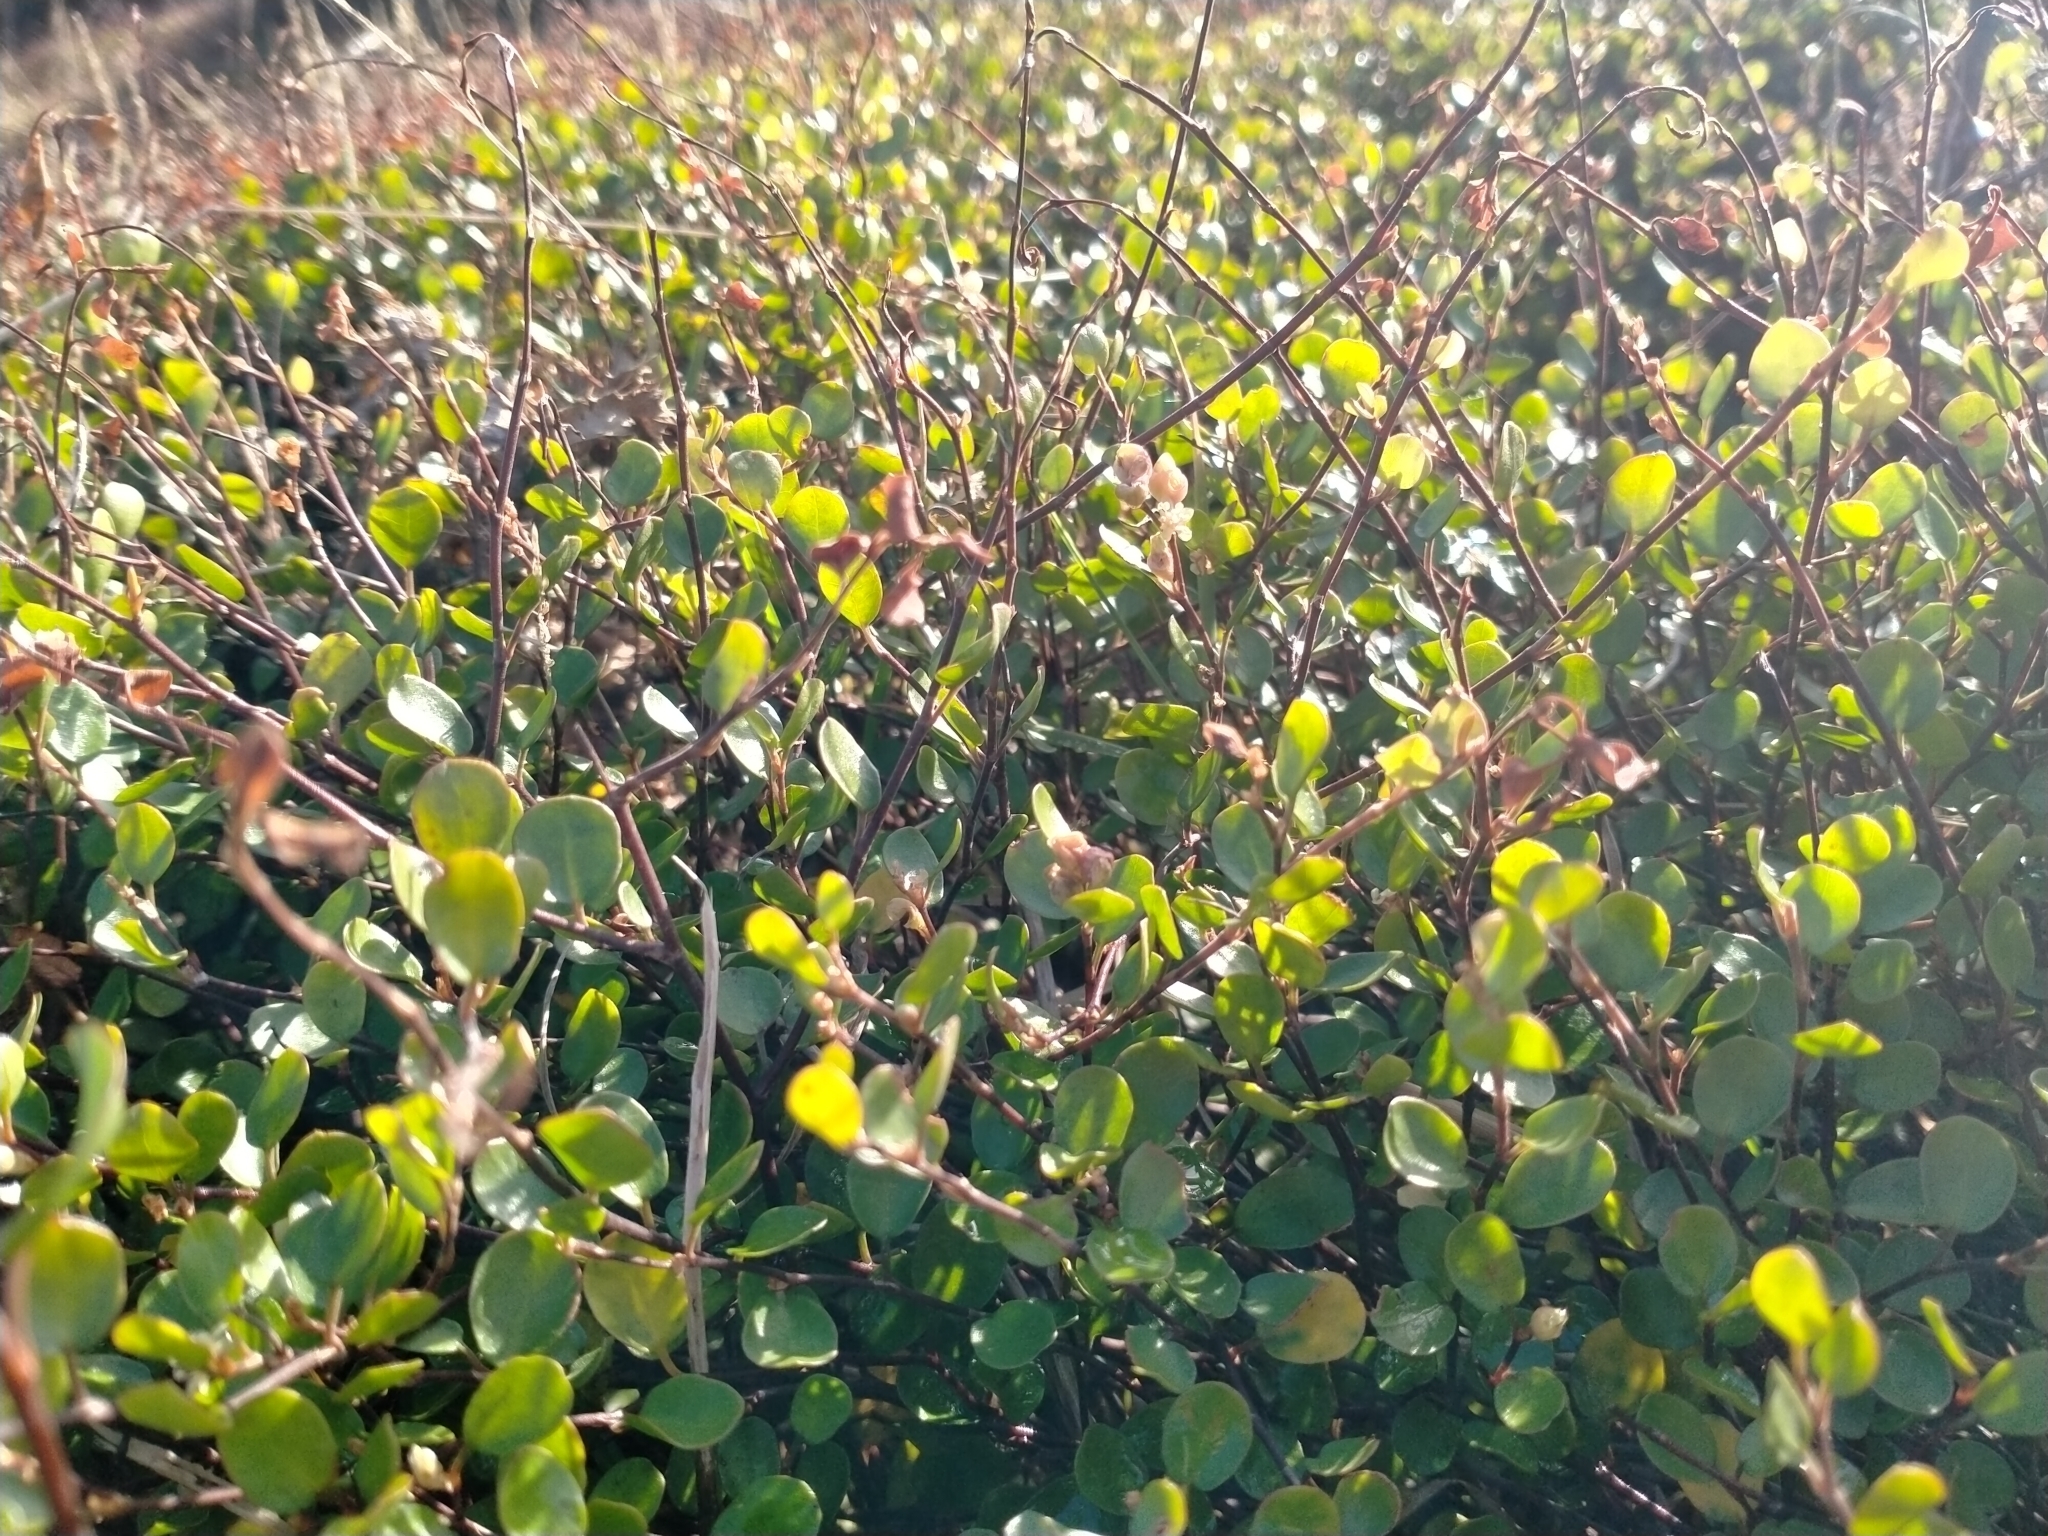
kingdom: Plantae
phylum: Tracheophyta
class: Magnoliopsida
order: Caryophyllales
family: Polygonaceae
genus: Muehlenbeckia
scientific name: Muehlenbeckia axillaris
